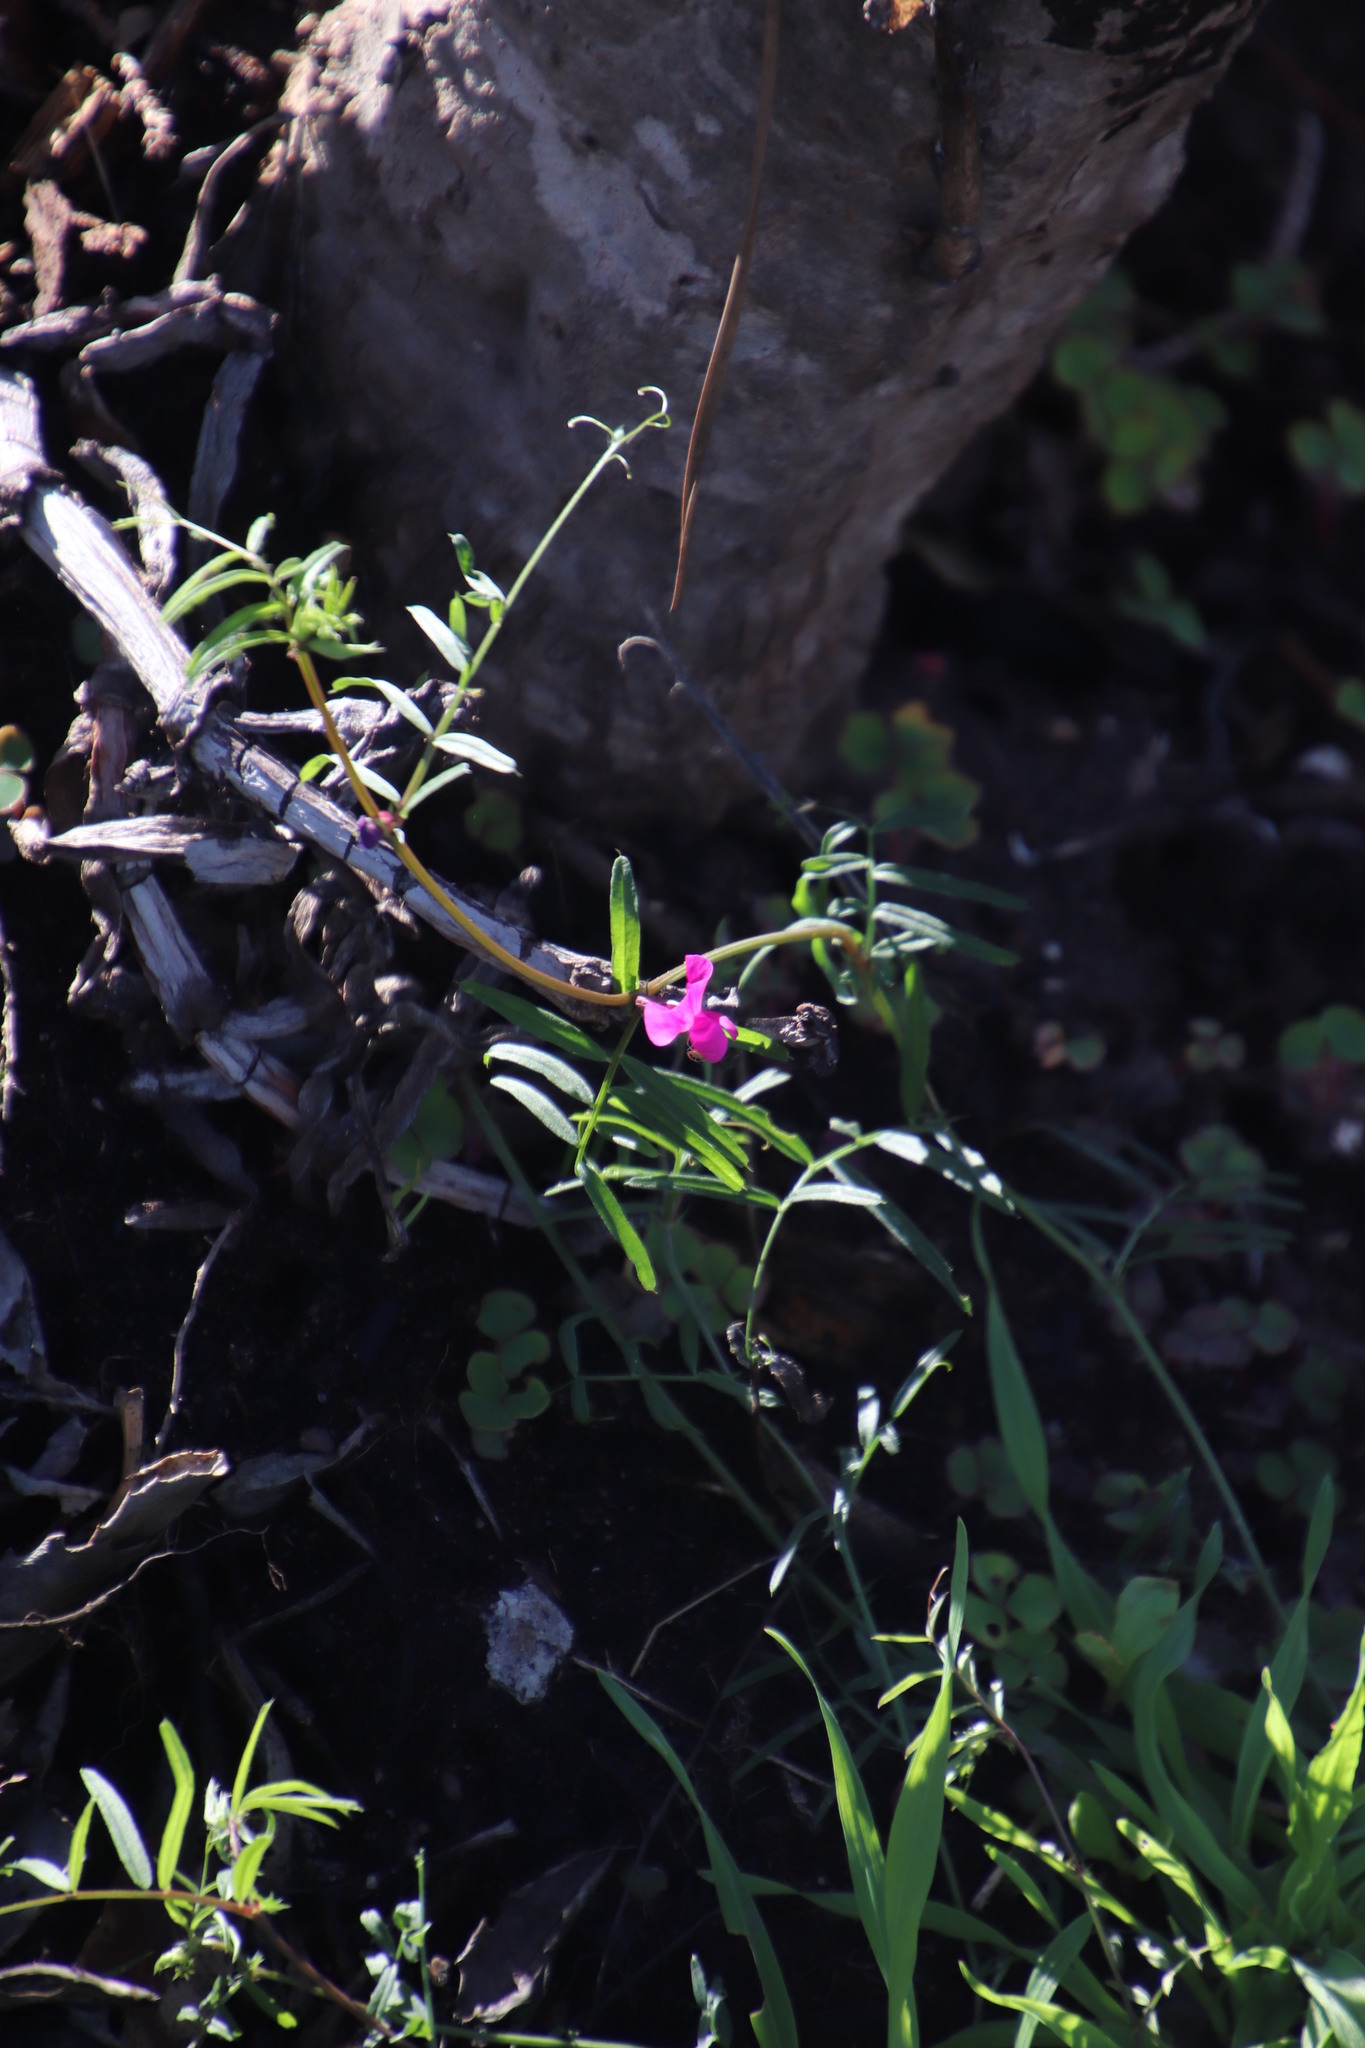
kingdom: Plantae
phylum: Tracheophyta
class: Magnoliopsida
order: Fabales
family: Fabaceae
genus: Vicia
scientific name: Vicia sativa
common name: Garden vetch
